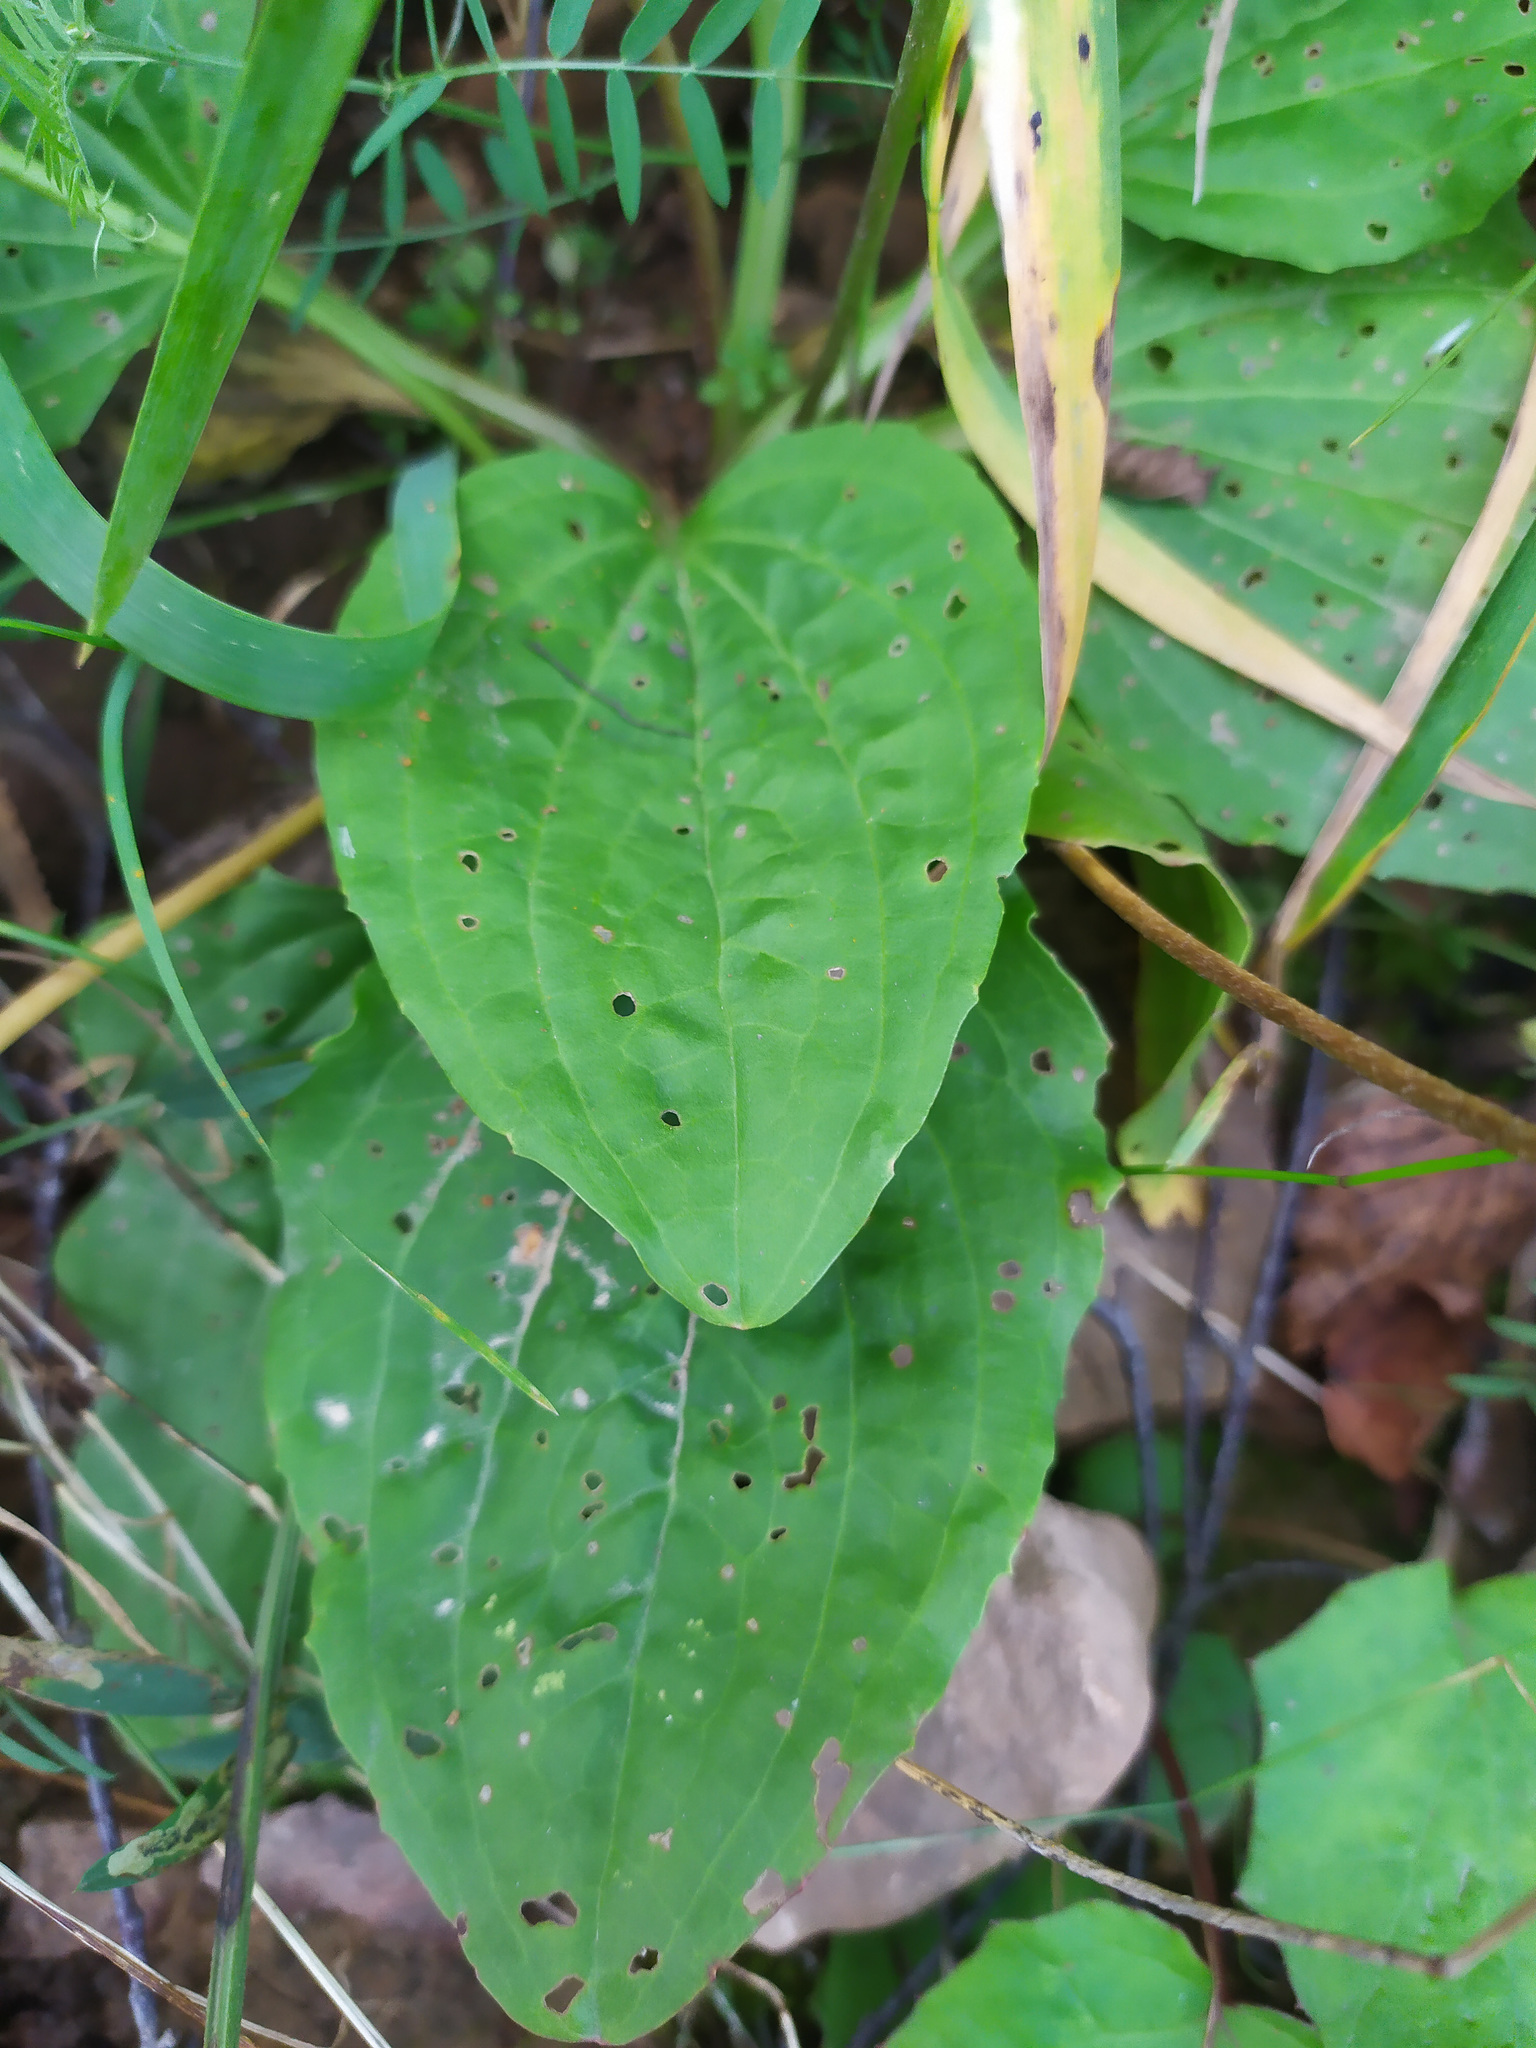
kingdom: Plantae
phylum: Tracheophyta
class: Magnoliopsida
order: Lamiales
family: Plantaginaceae
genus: Plantago
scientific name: Plantago major
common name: Common plantain
